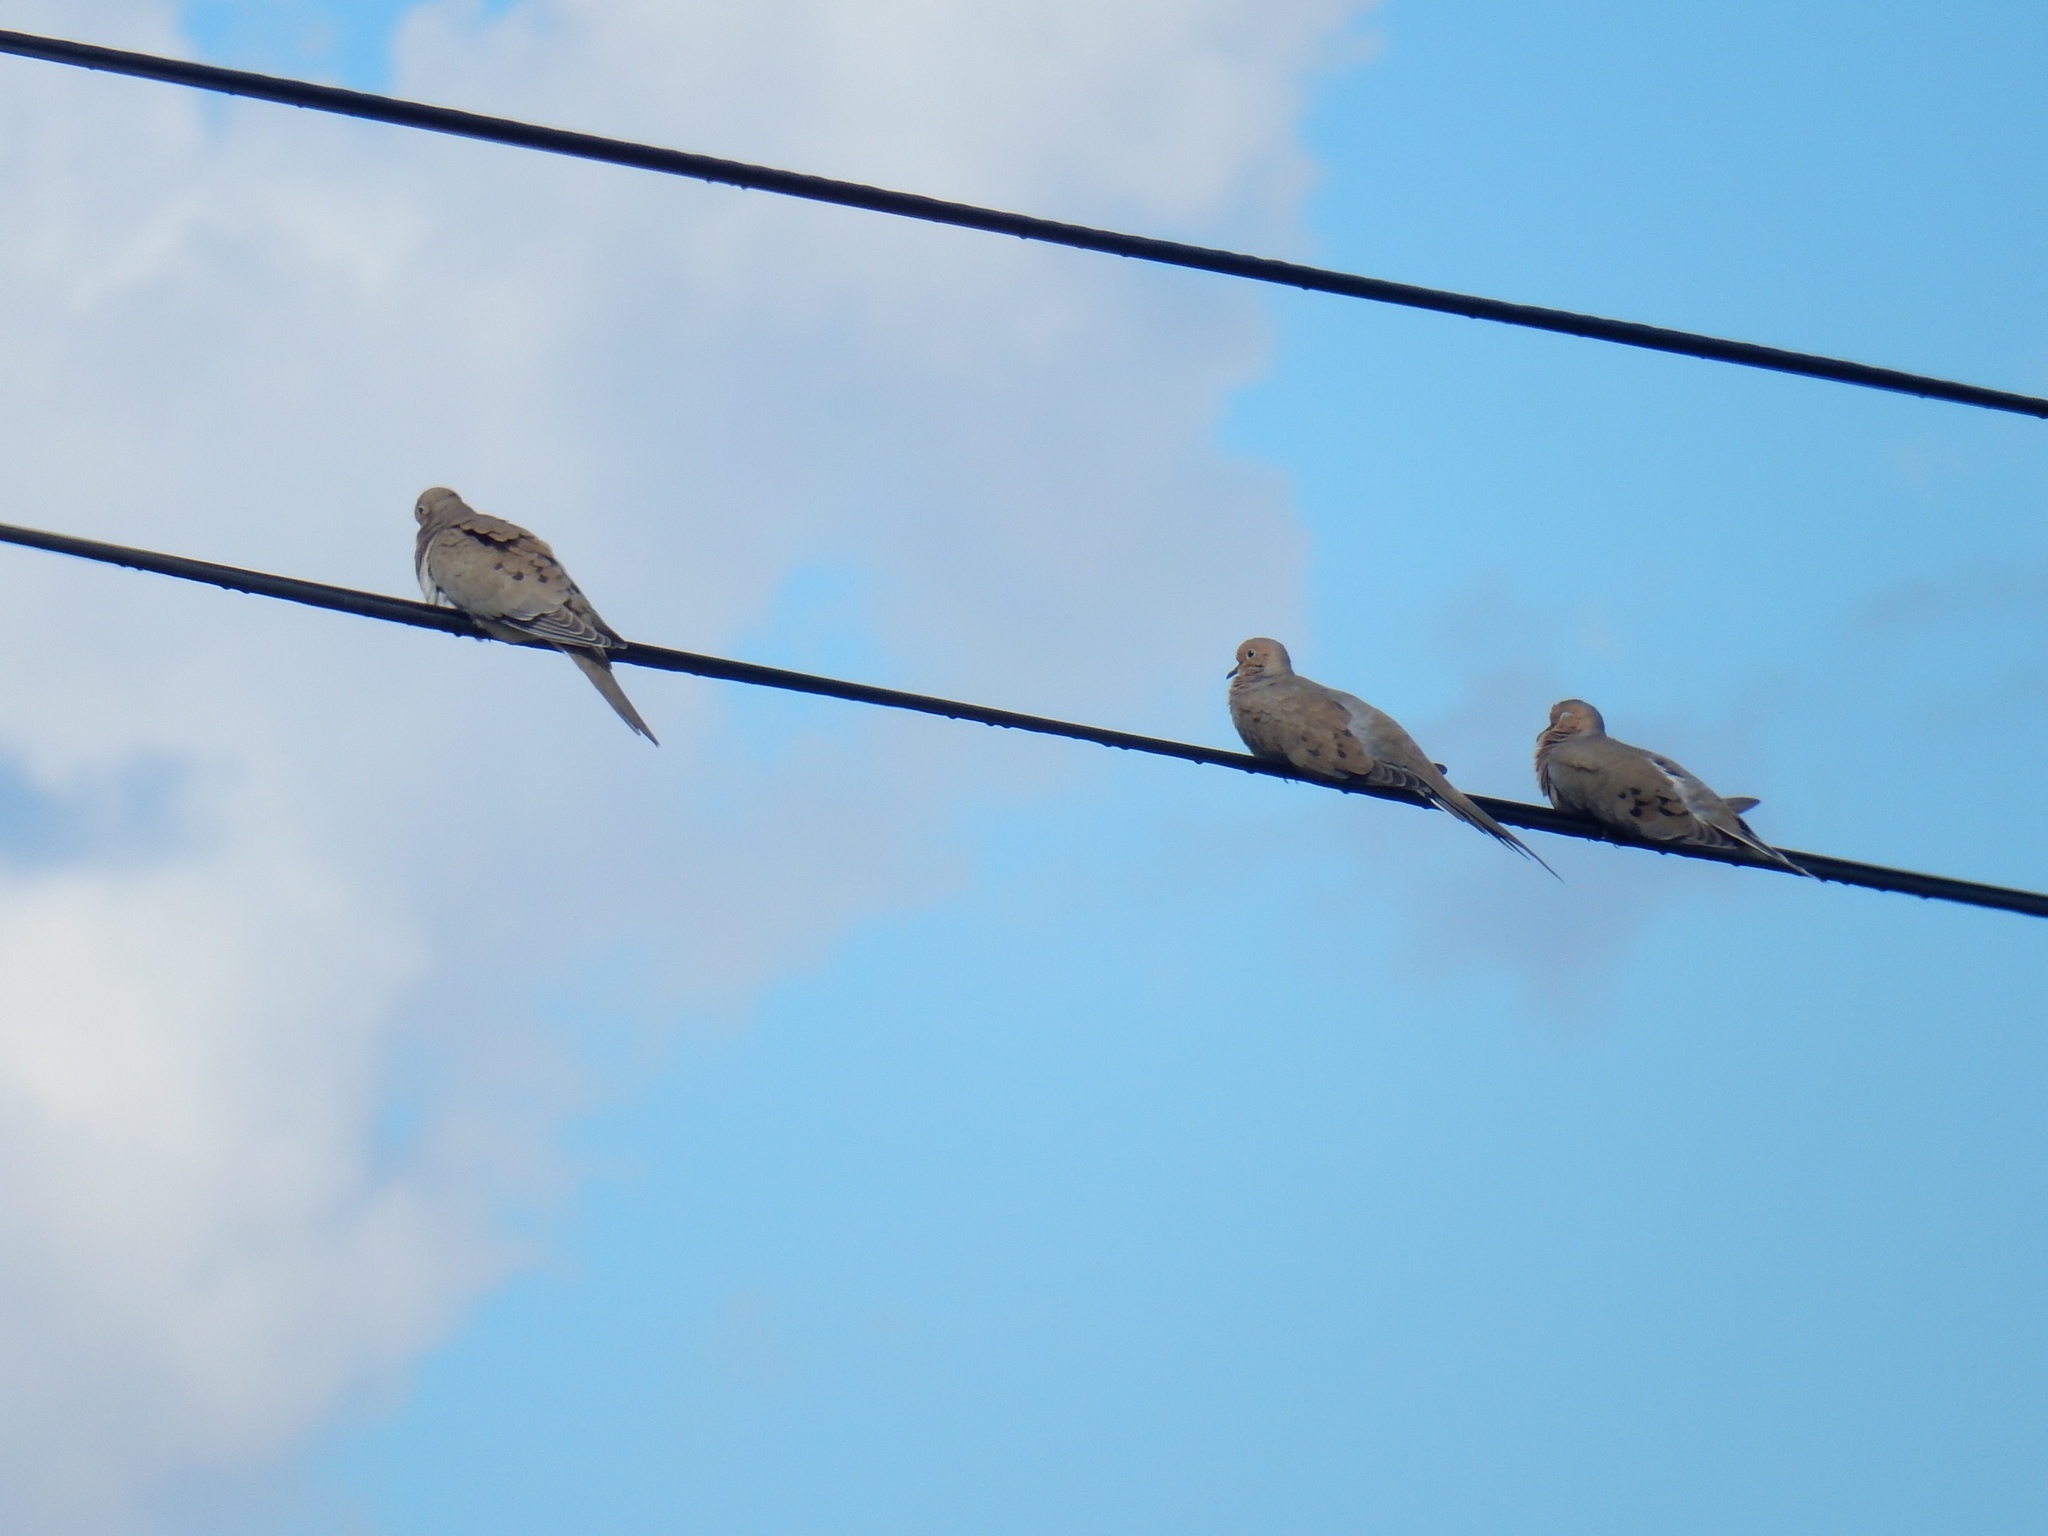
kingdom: Animalia
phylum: Chordata
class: Aves
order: Columbiformes
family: Columbidae
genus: Zenaida
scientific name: Zenaida macroura
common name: Mourning dove
